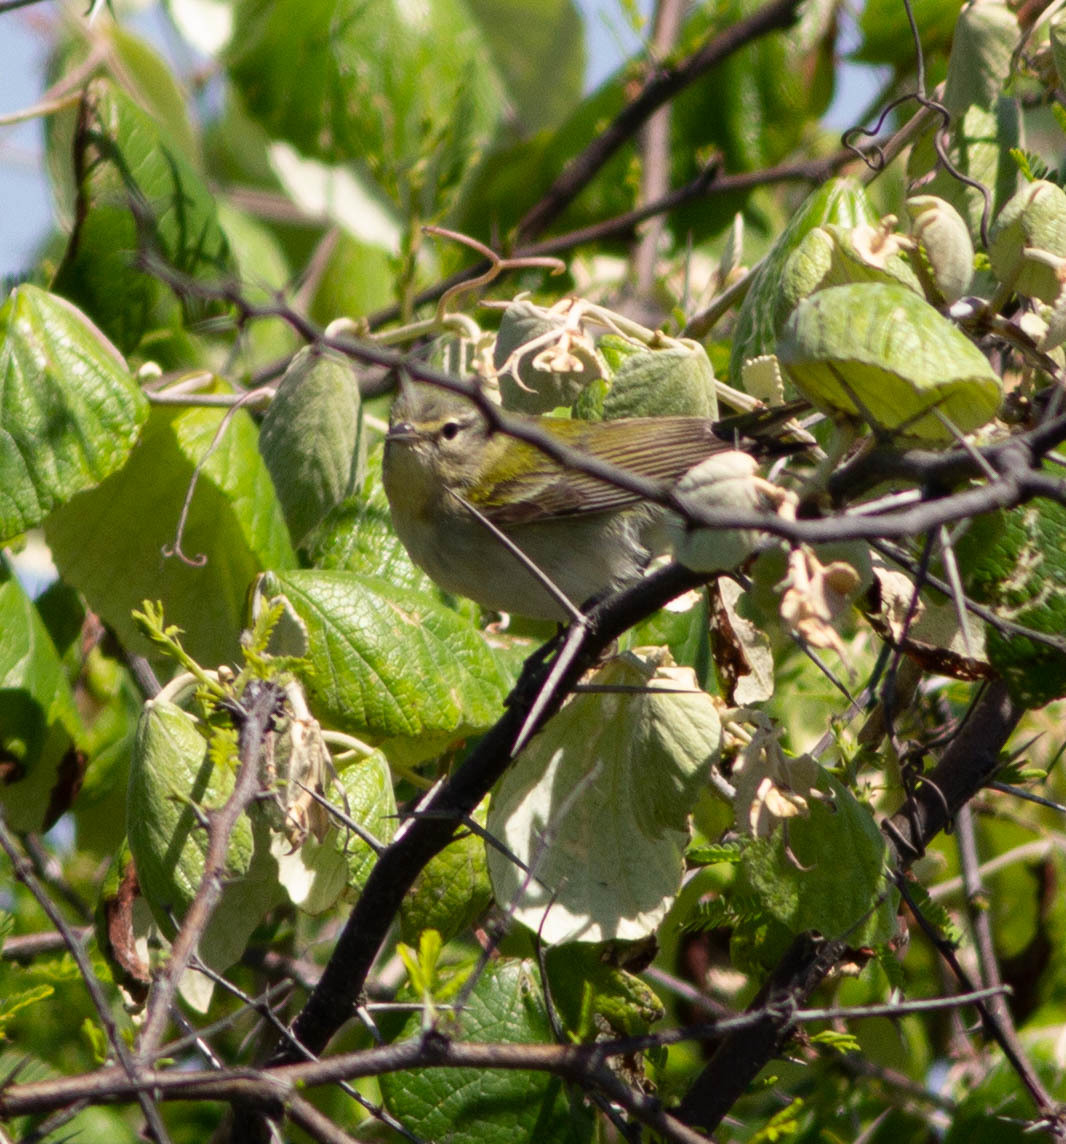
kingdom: Animalia
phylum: Chordata
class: Aves
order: Passeriformes
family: Parulidae
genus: Leiothlypis
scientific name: Leiothlypis peregrina
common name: Tennessee warbler
